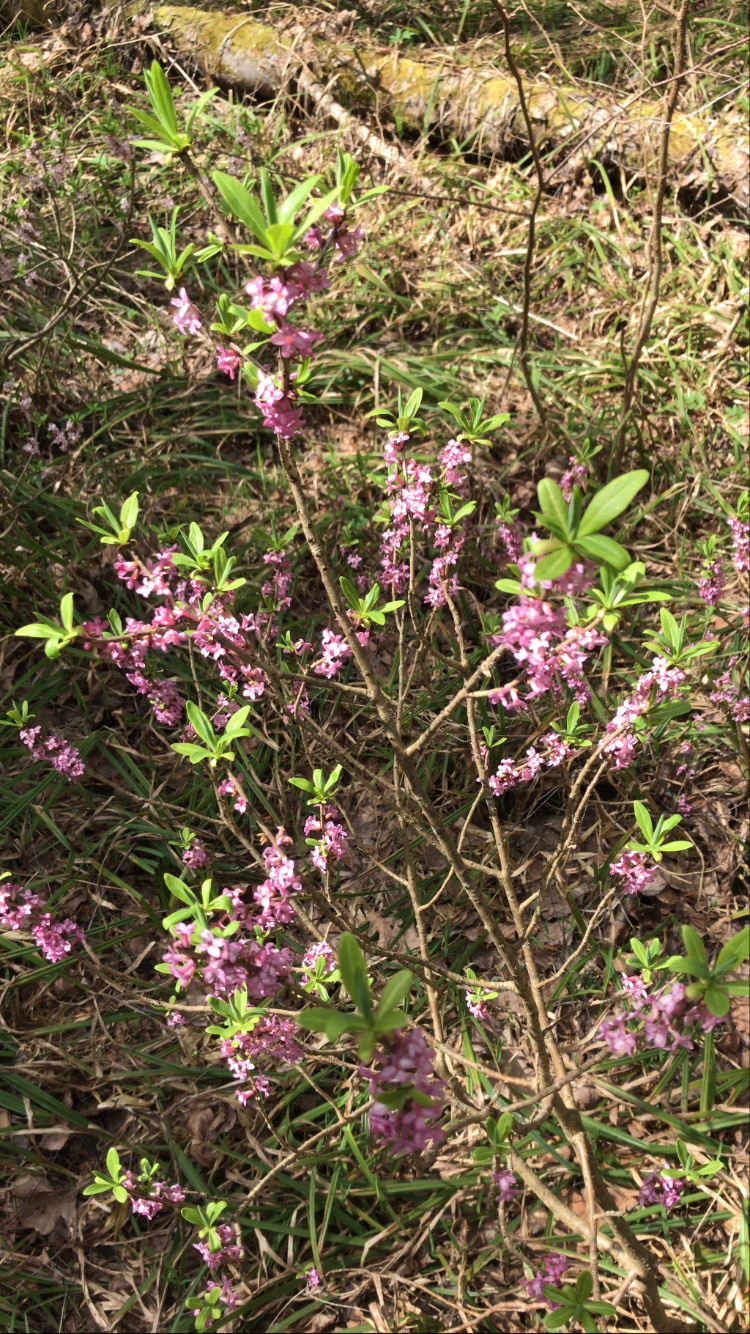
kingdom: Plantae
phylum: Tracheophyta
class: Magnoliopsida
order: Malvales
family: Thymelaeaceae
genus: Daphne
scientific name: Daphne mezereum
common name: Mezereon
